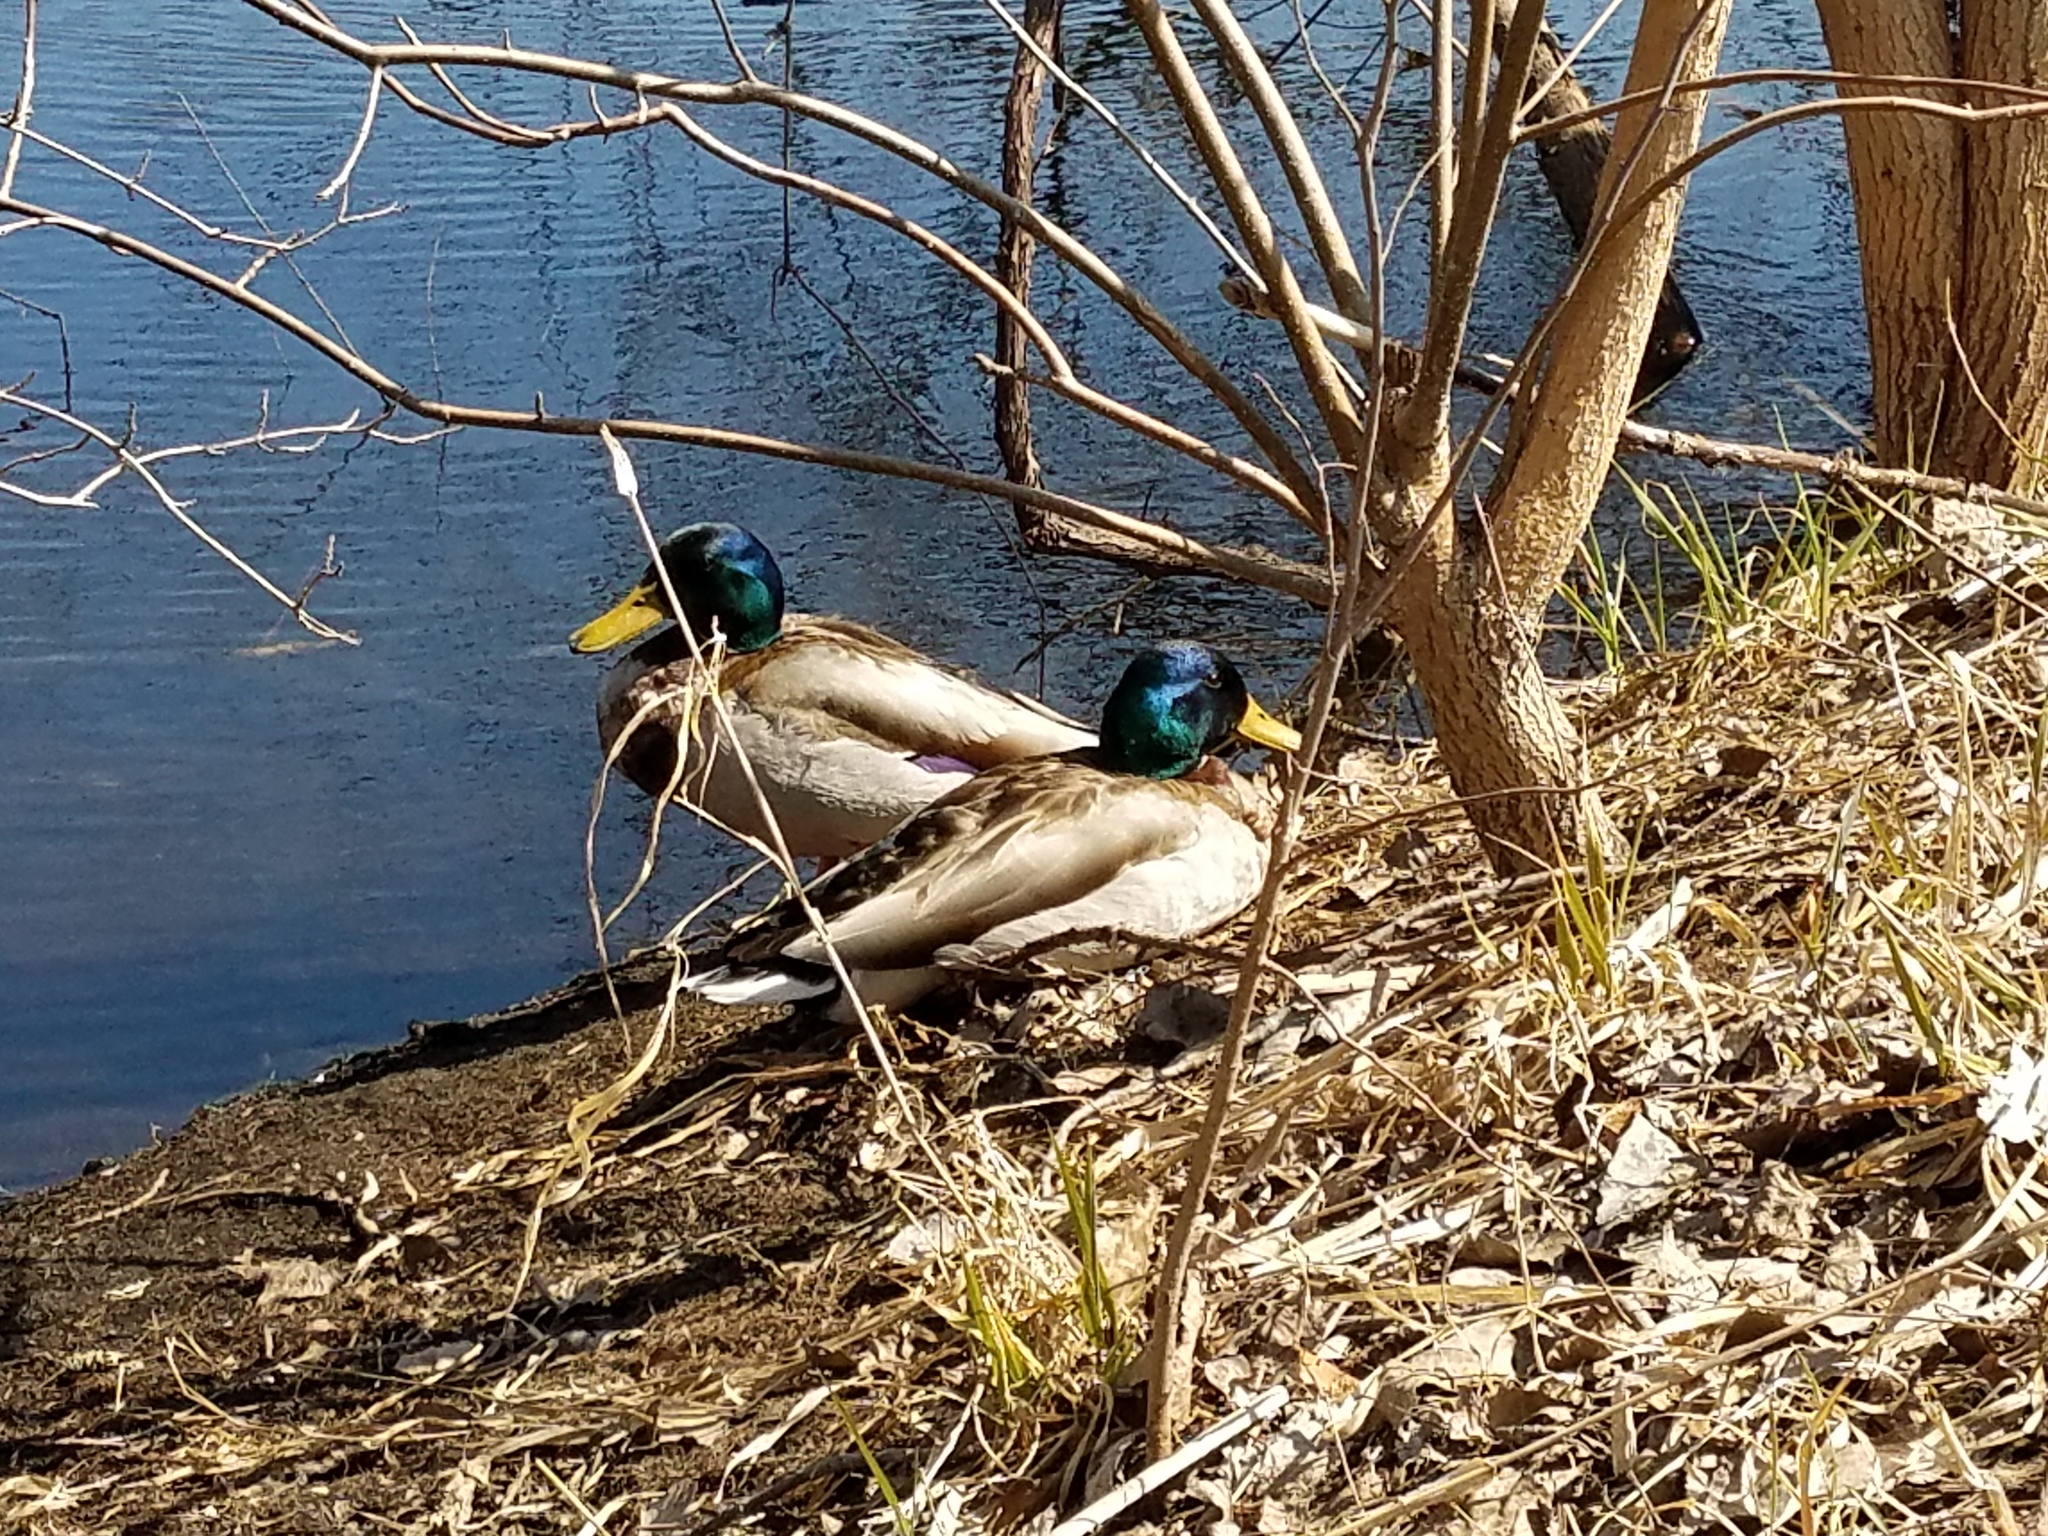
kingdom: Animalia
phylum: Chordata
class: Aves
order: Anseriformes
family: Anatidae
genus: Anas
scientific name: Anas platyrhynchos
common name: Mallard
